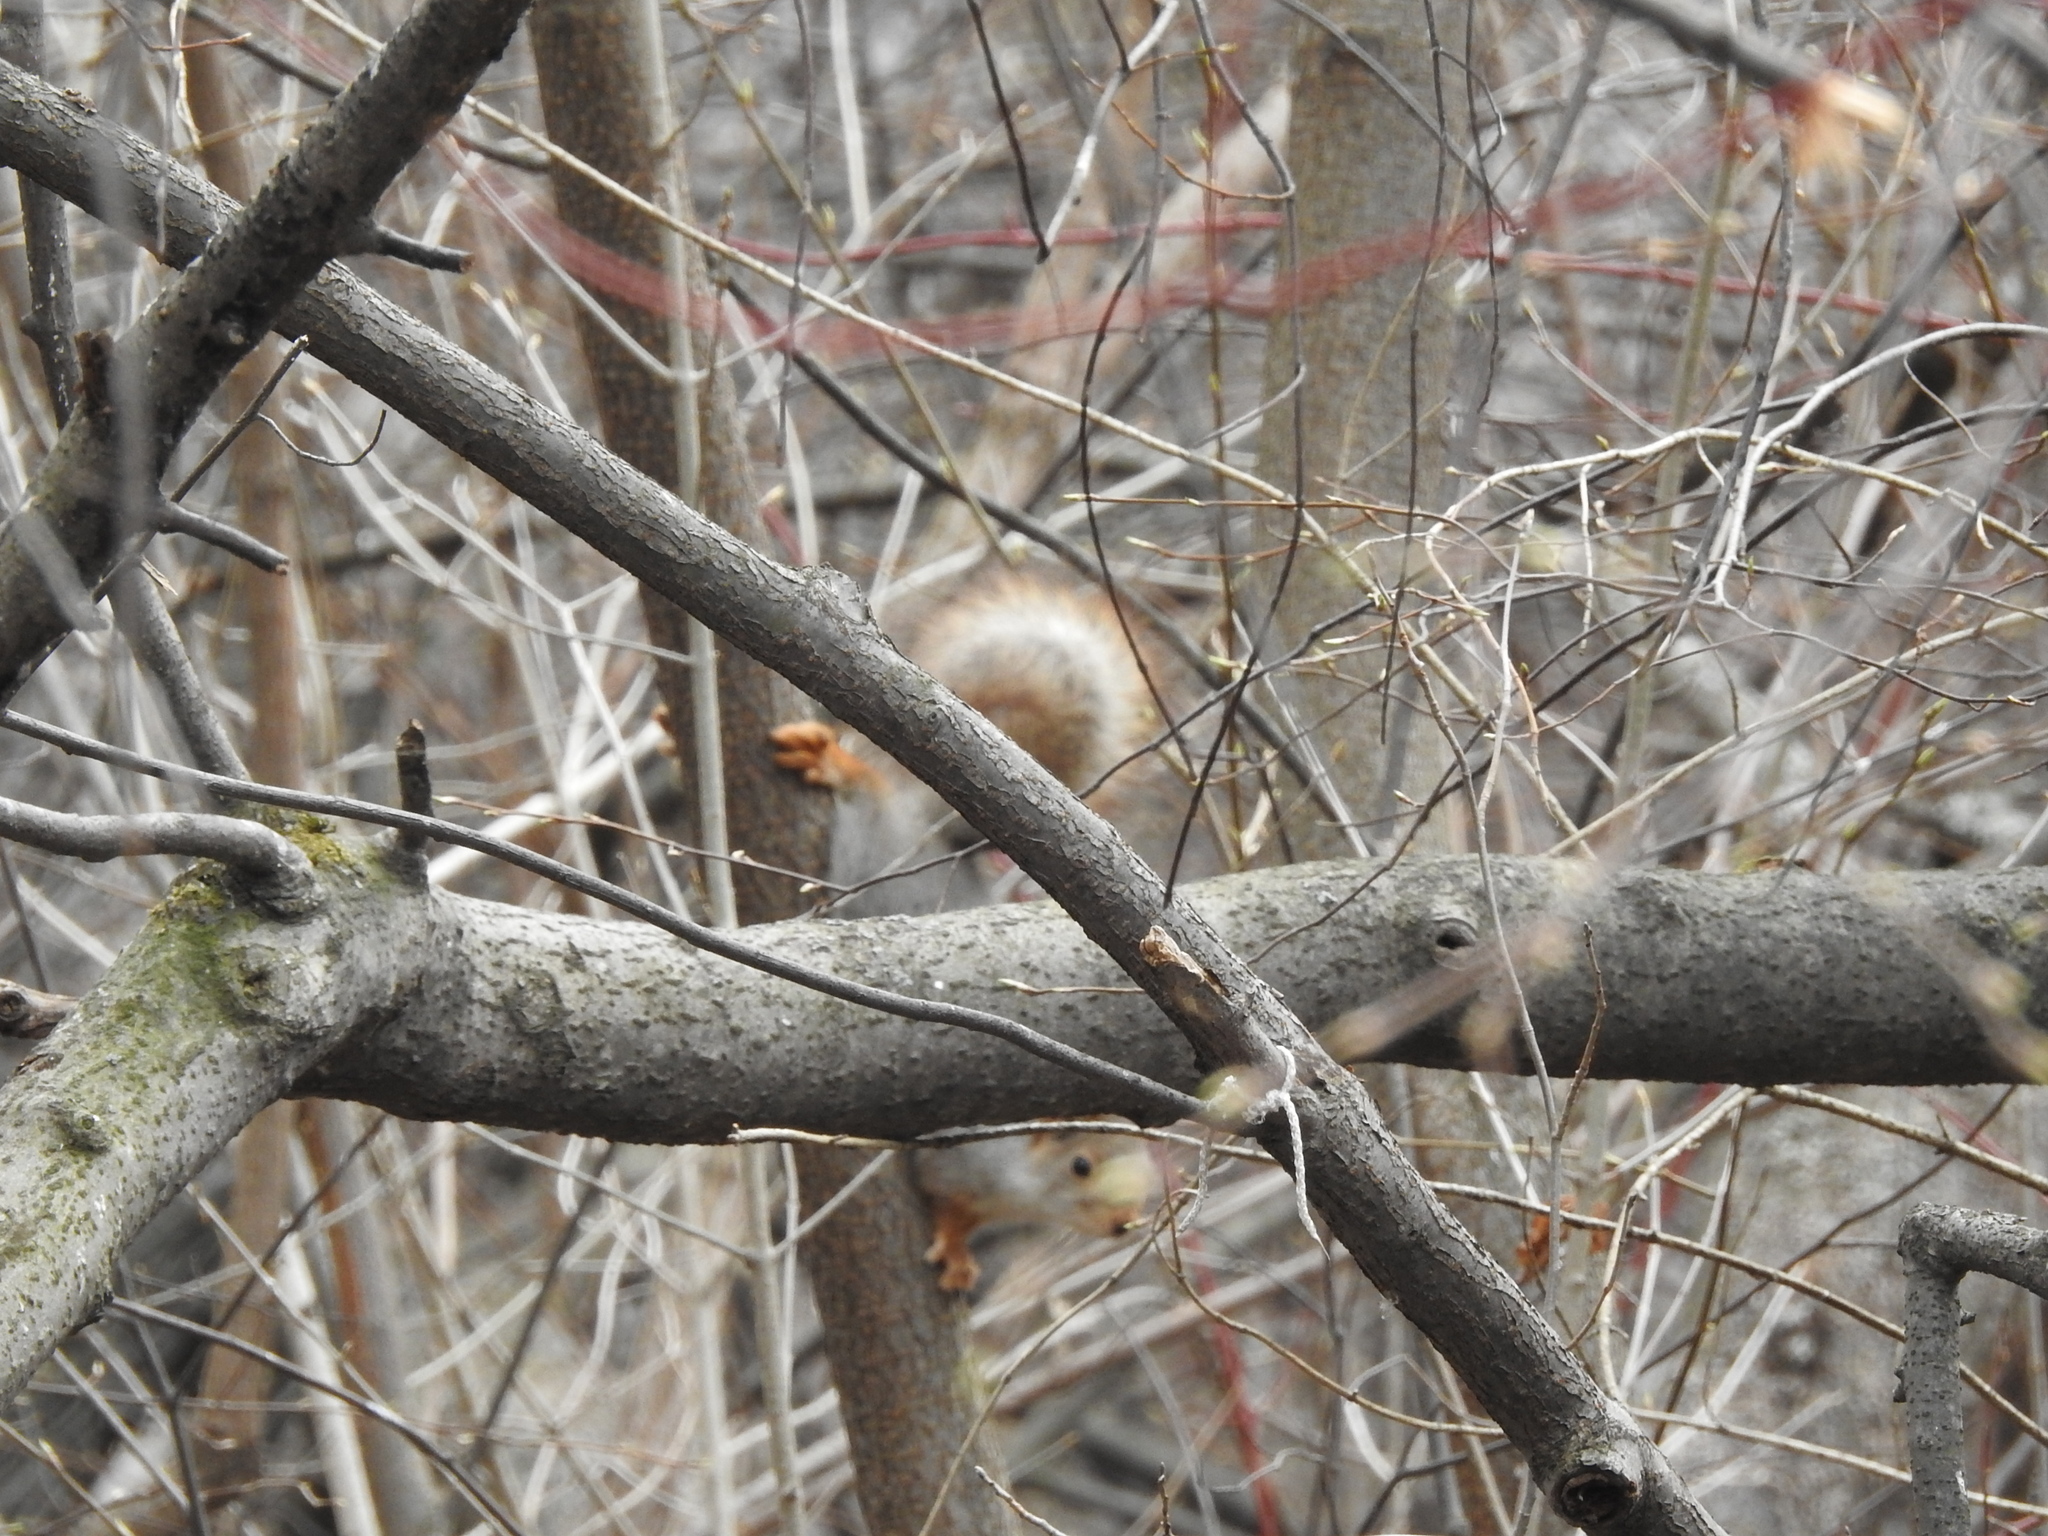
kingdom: Animalia
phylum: Chordata
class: Mammalia
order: Rodentia
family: Sciuridae
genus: Sciurus
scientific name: Sciurus vulgaris
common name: Eurasian red squirrel
